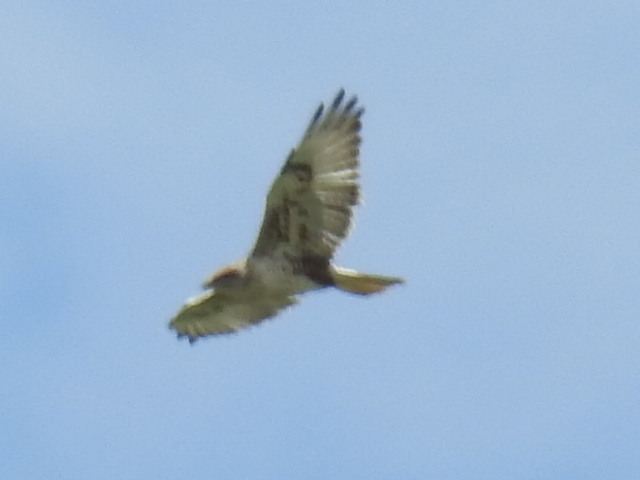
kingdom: Animalia
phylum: Chordata
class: Aves
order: Accipitriformes
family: Accipitridae
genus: Buteo
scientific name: Buteo regalis
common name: Ferruginous hawk
